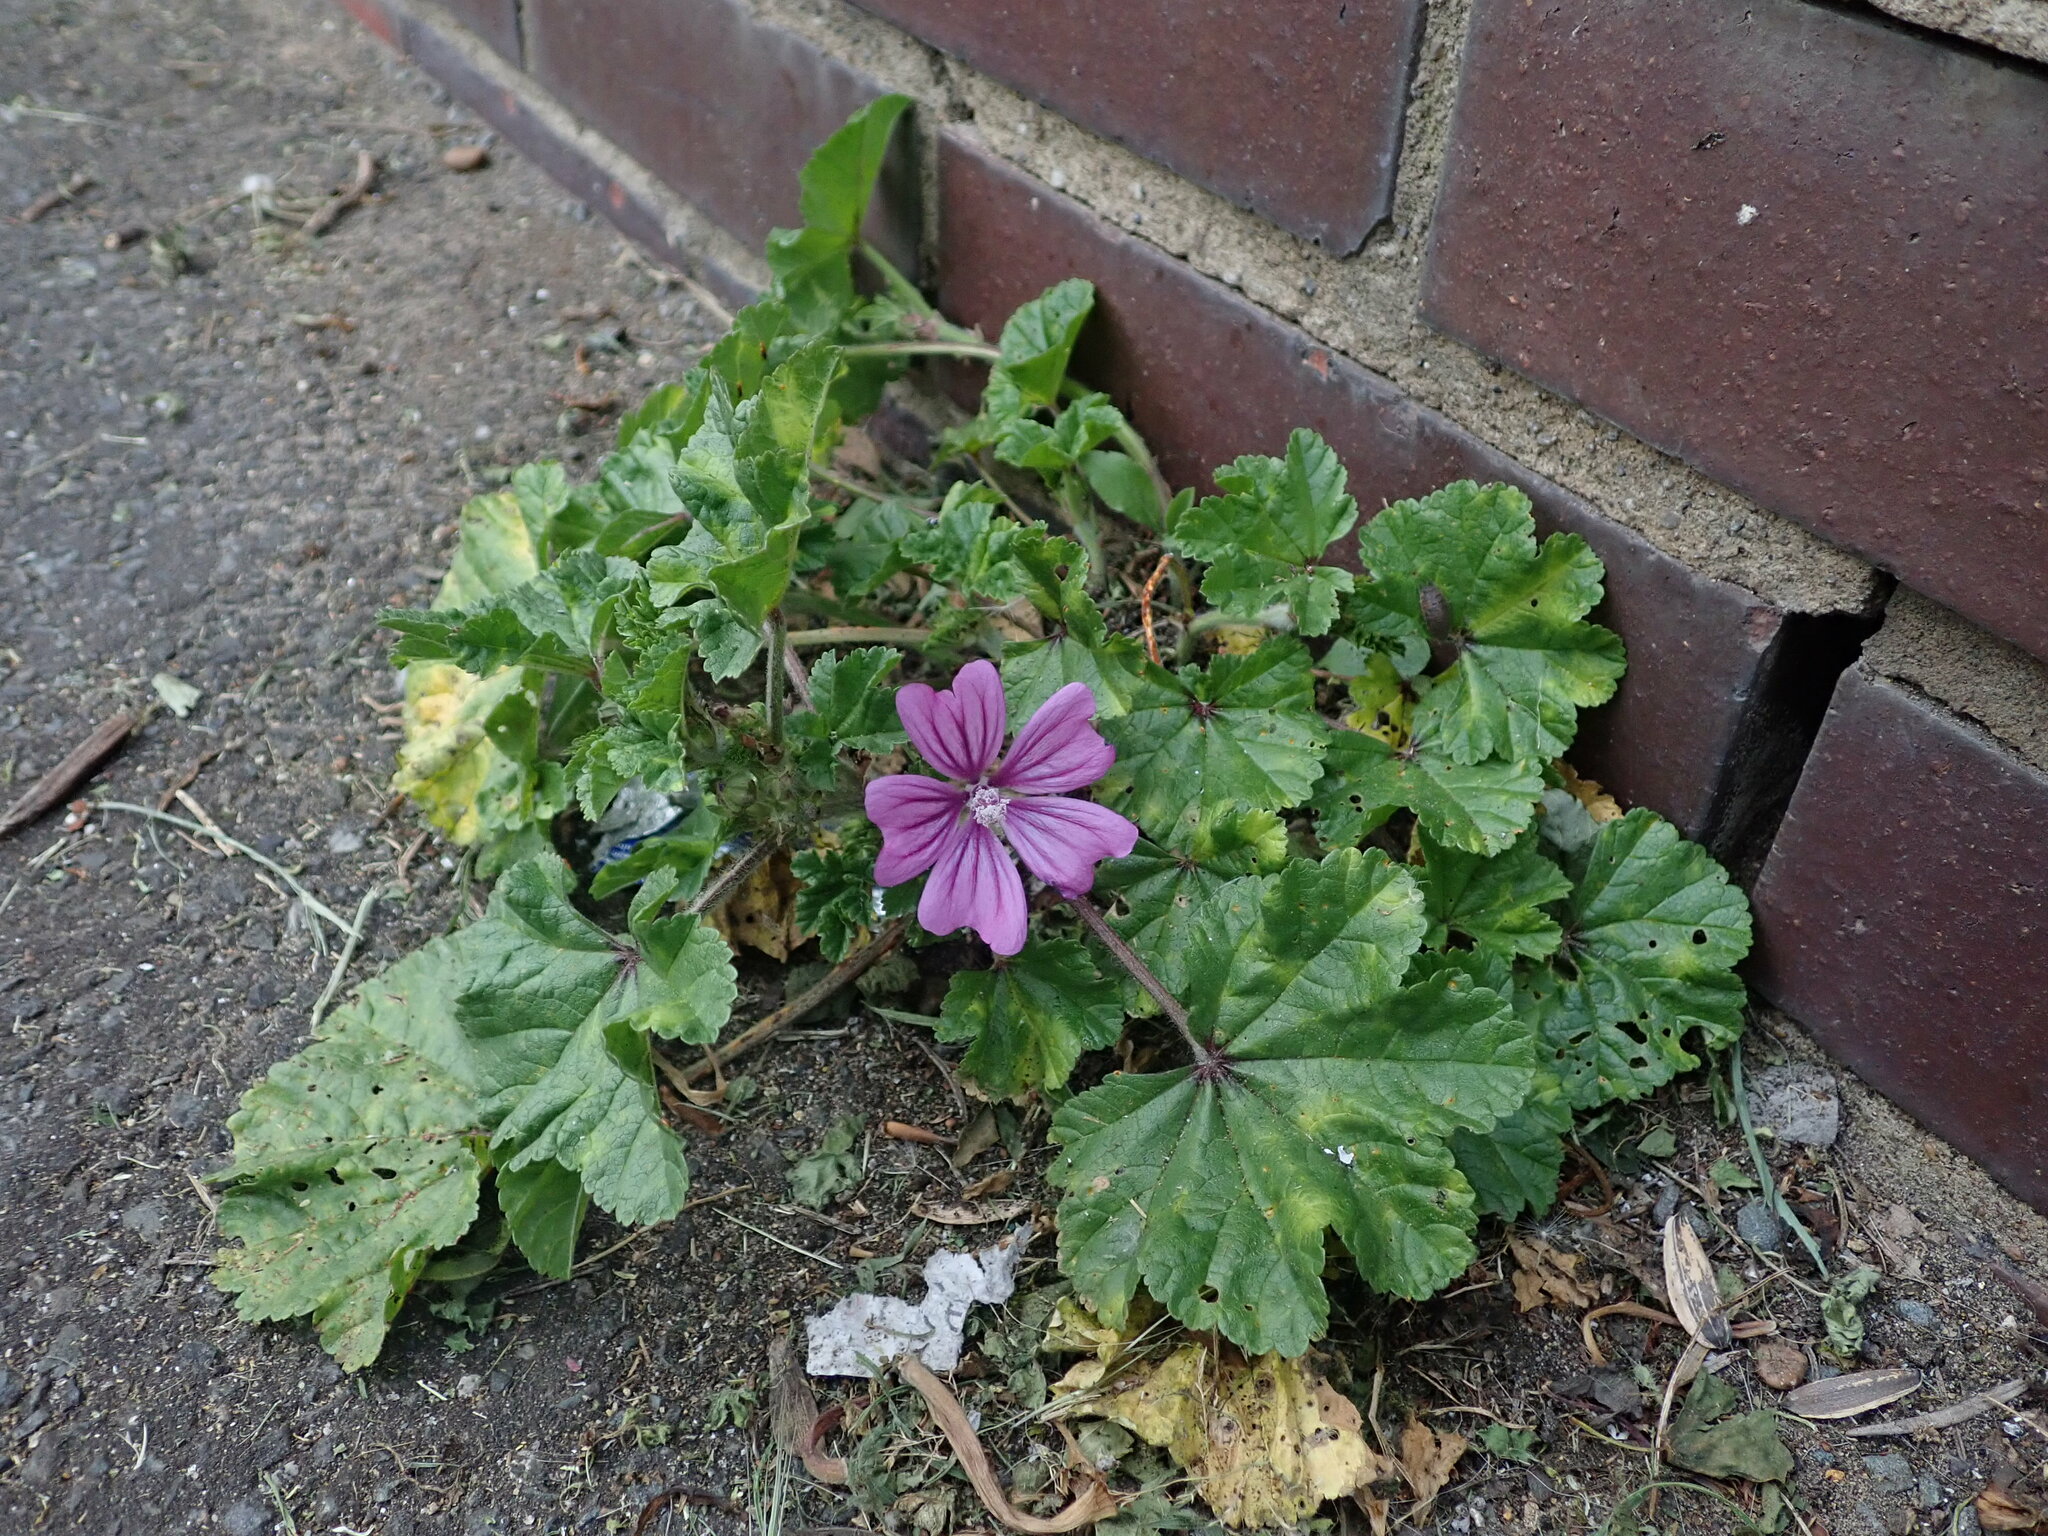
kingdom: Plantae
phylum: Tracheophyta
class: Magnoliopsida
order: Malvales
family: Malvaceae
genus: Malva
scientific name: Malva sylvestris
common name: Common mallow
